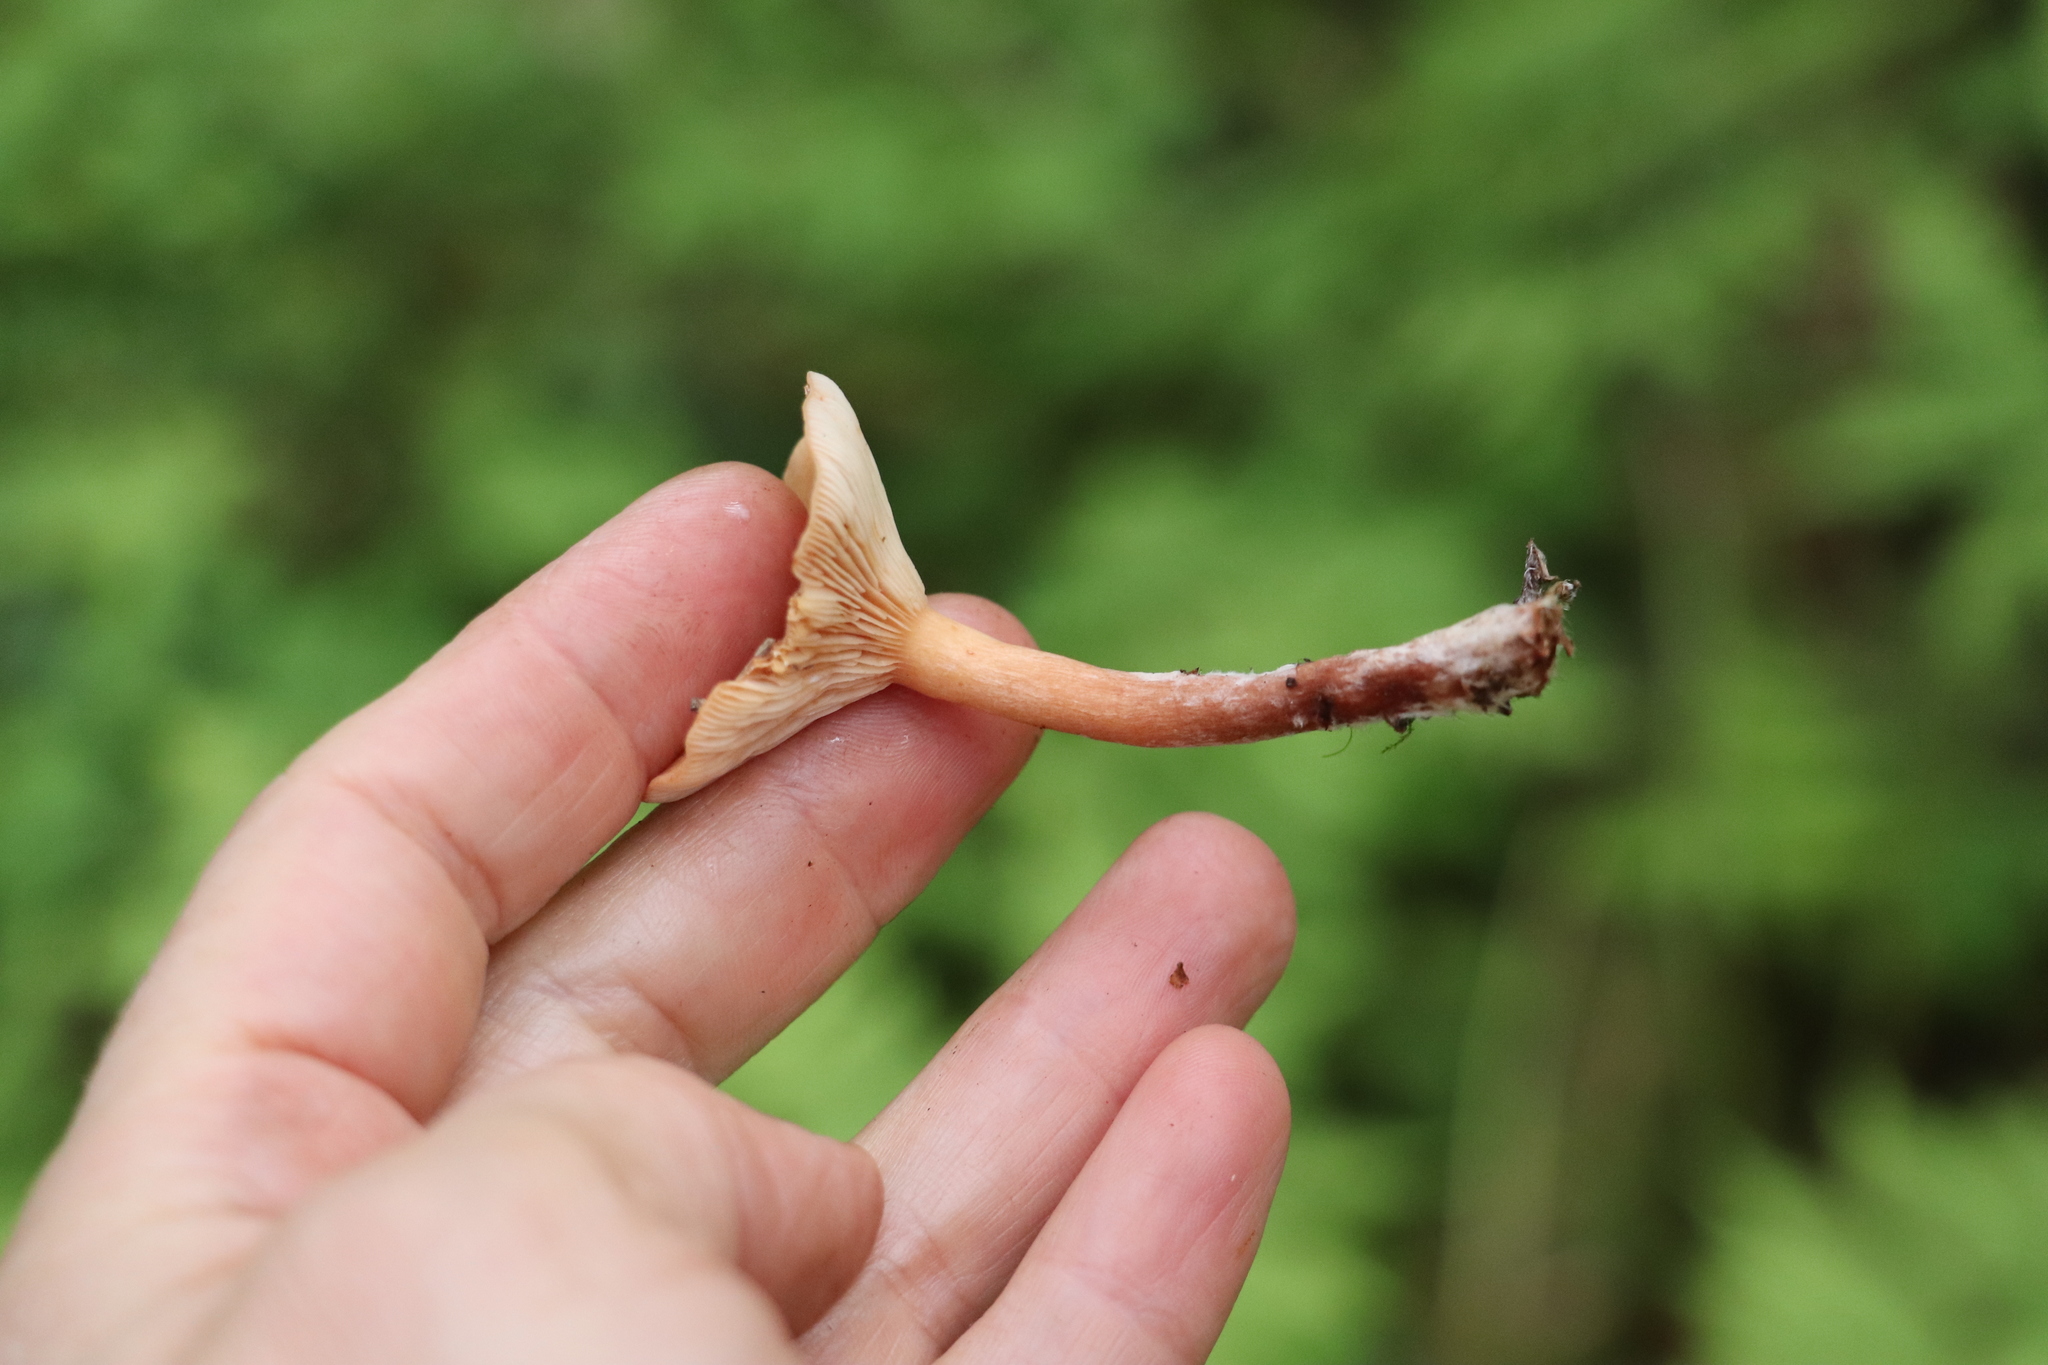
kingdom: Fungi
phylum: Basidiomycota
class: Agaricomycetes
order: Russulales
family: Russulaceae
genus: Lactarius
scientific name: Lactarius aurantiacus
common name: Orange milkcap
